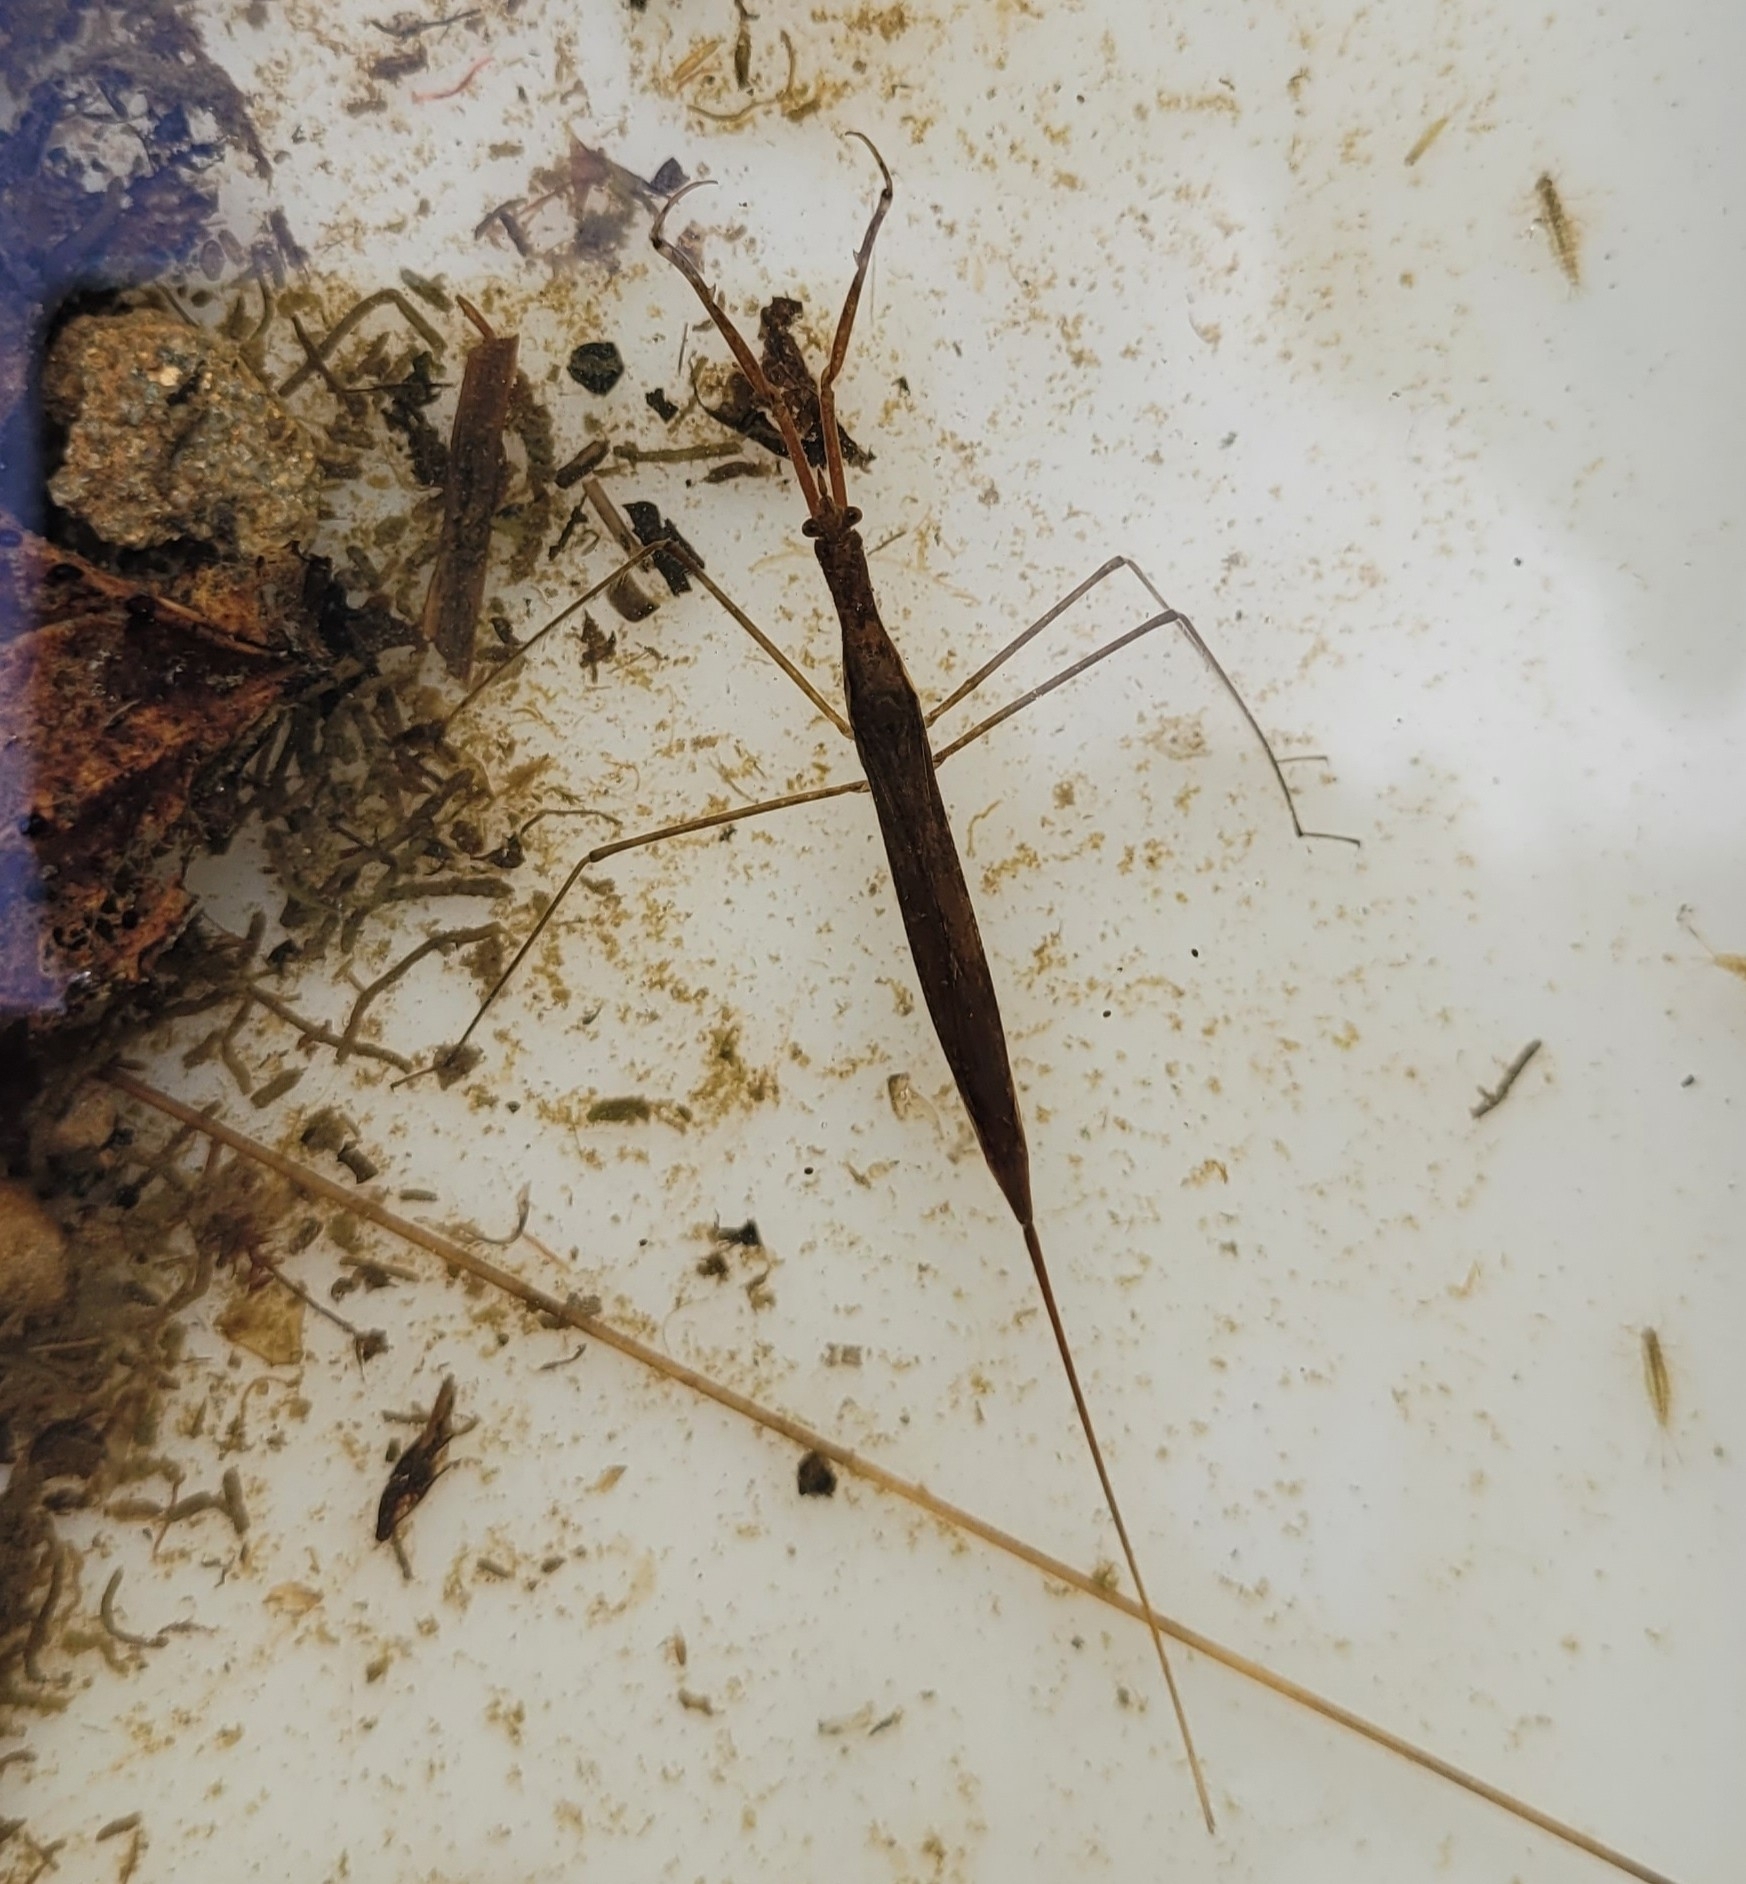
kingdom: Animalia
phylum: Arthropoda
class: Insecta
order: Hemiptera
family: Nepidae
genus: Ranatra
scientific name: Ranatra linearis
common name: Water stick insect
